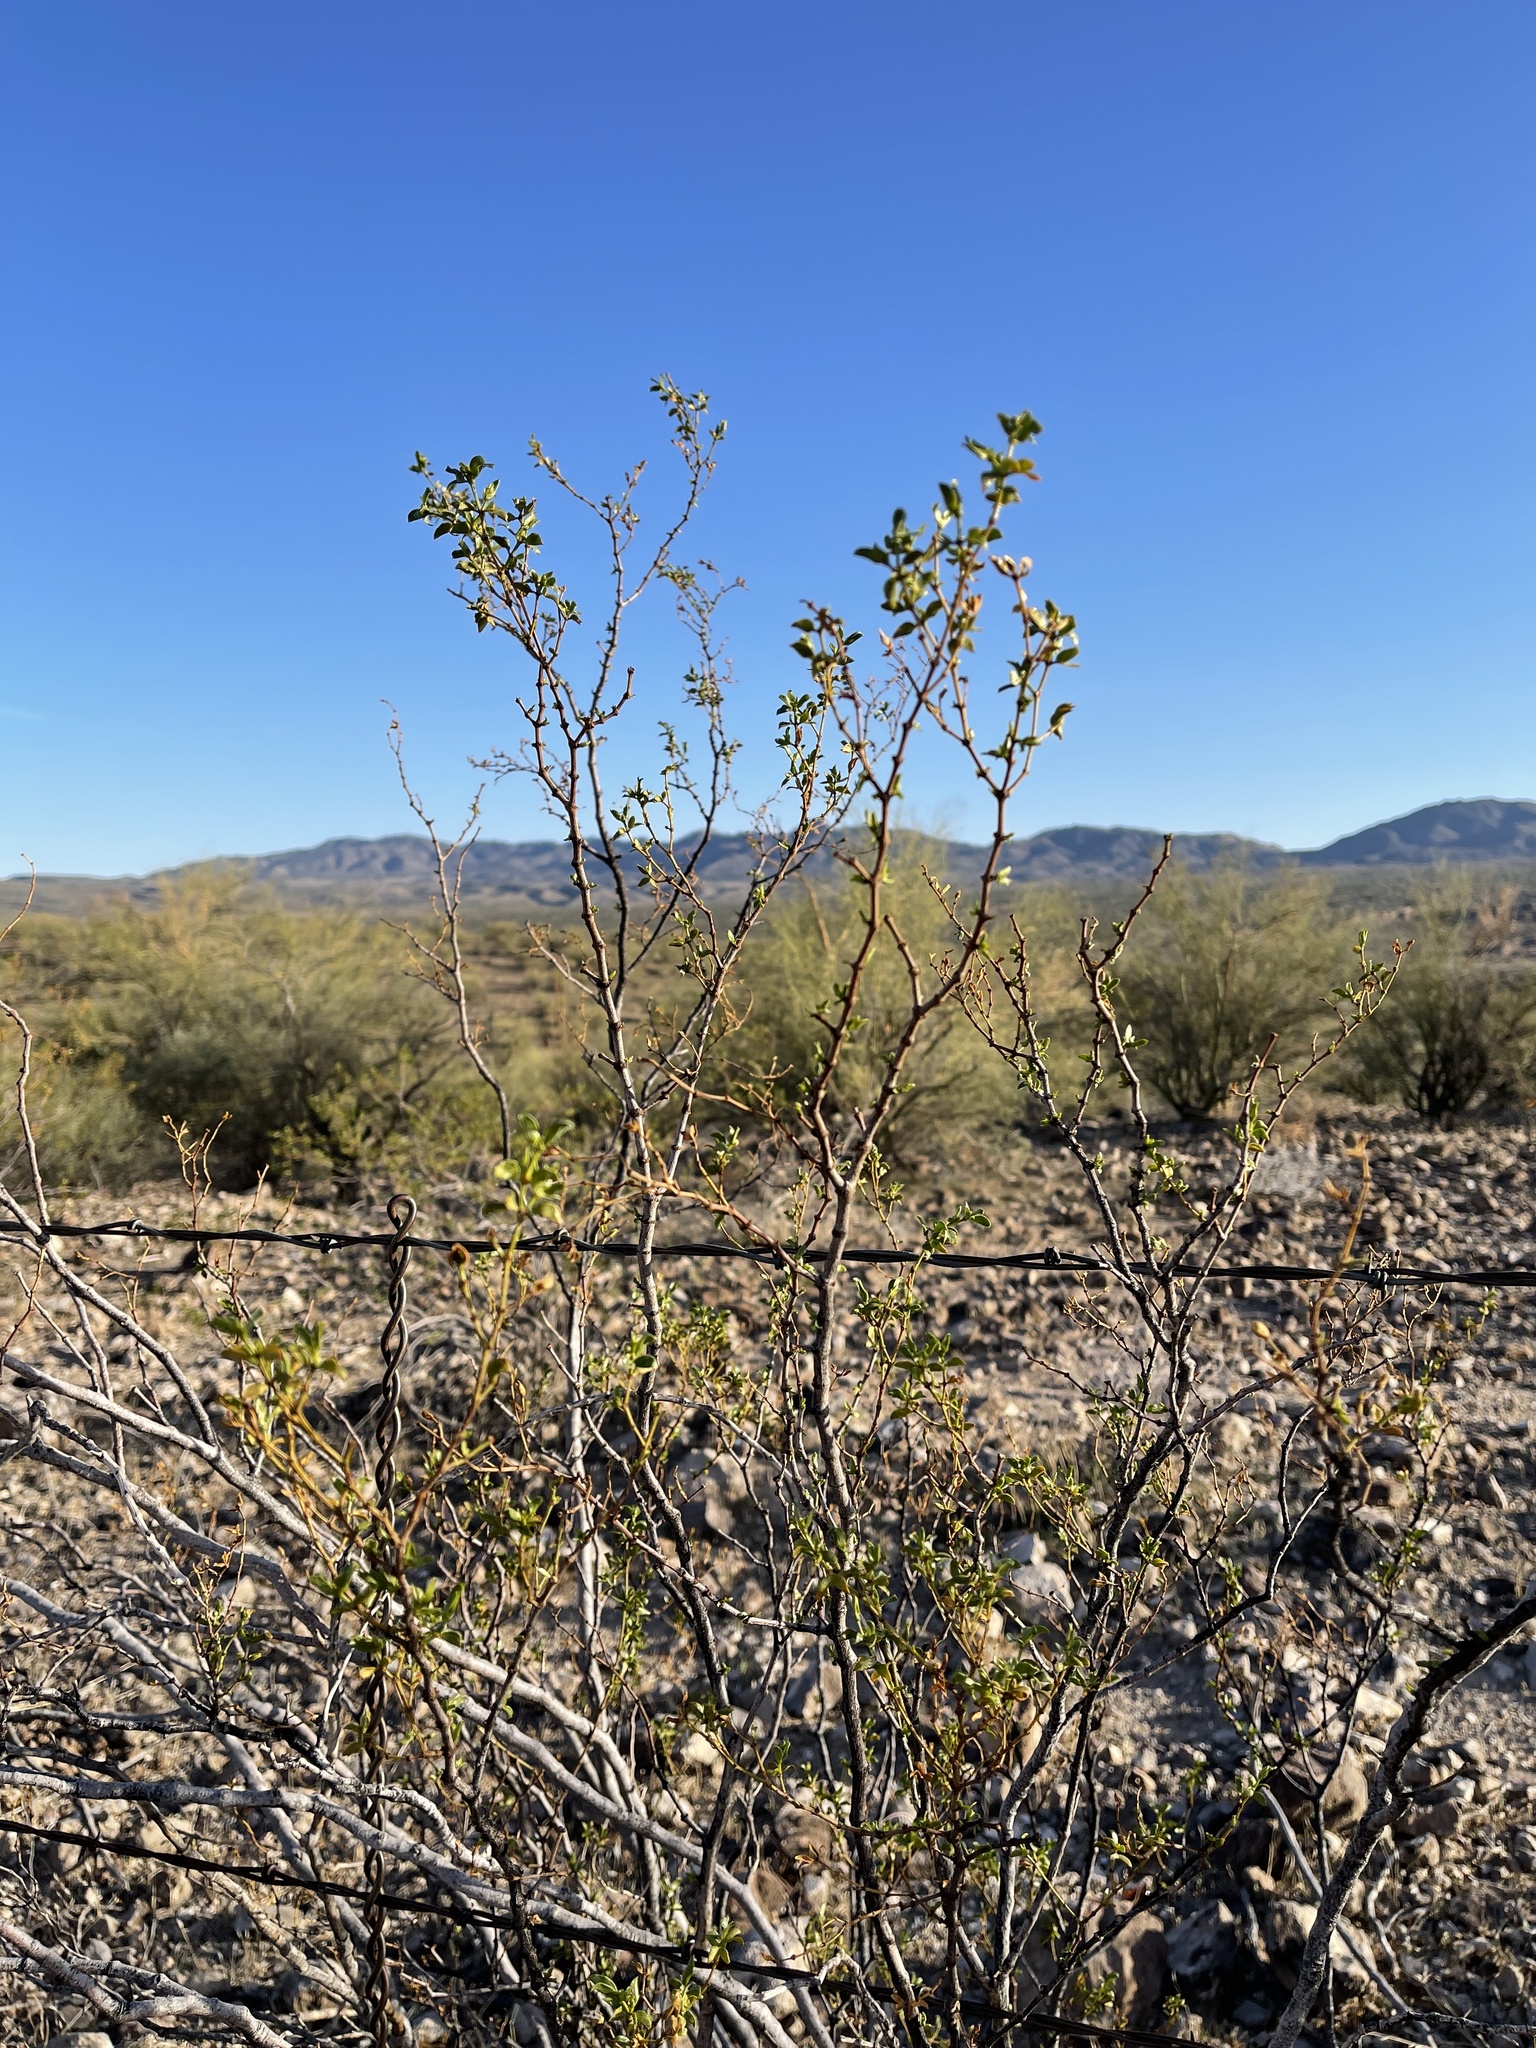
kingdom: Plantae
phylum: Tracheophyta
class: Magnoliopsida
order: Zygophyllales
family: Zygophyllaceae
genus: Larrea
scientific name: Larrea tridentata
